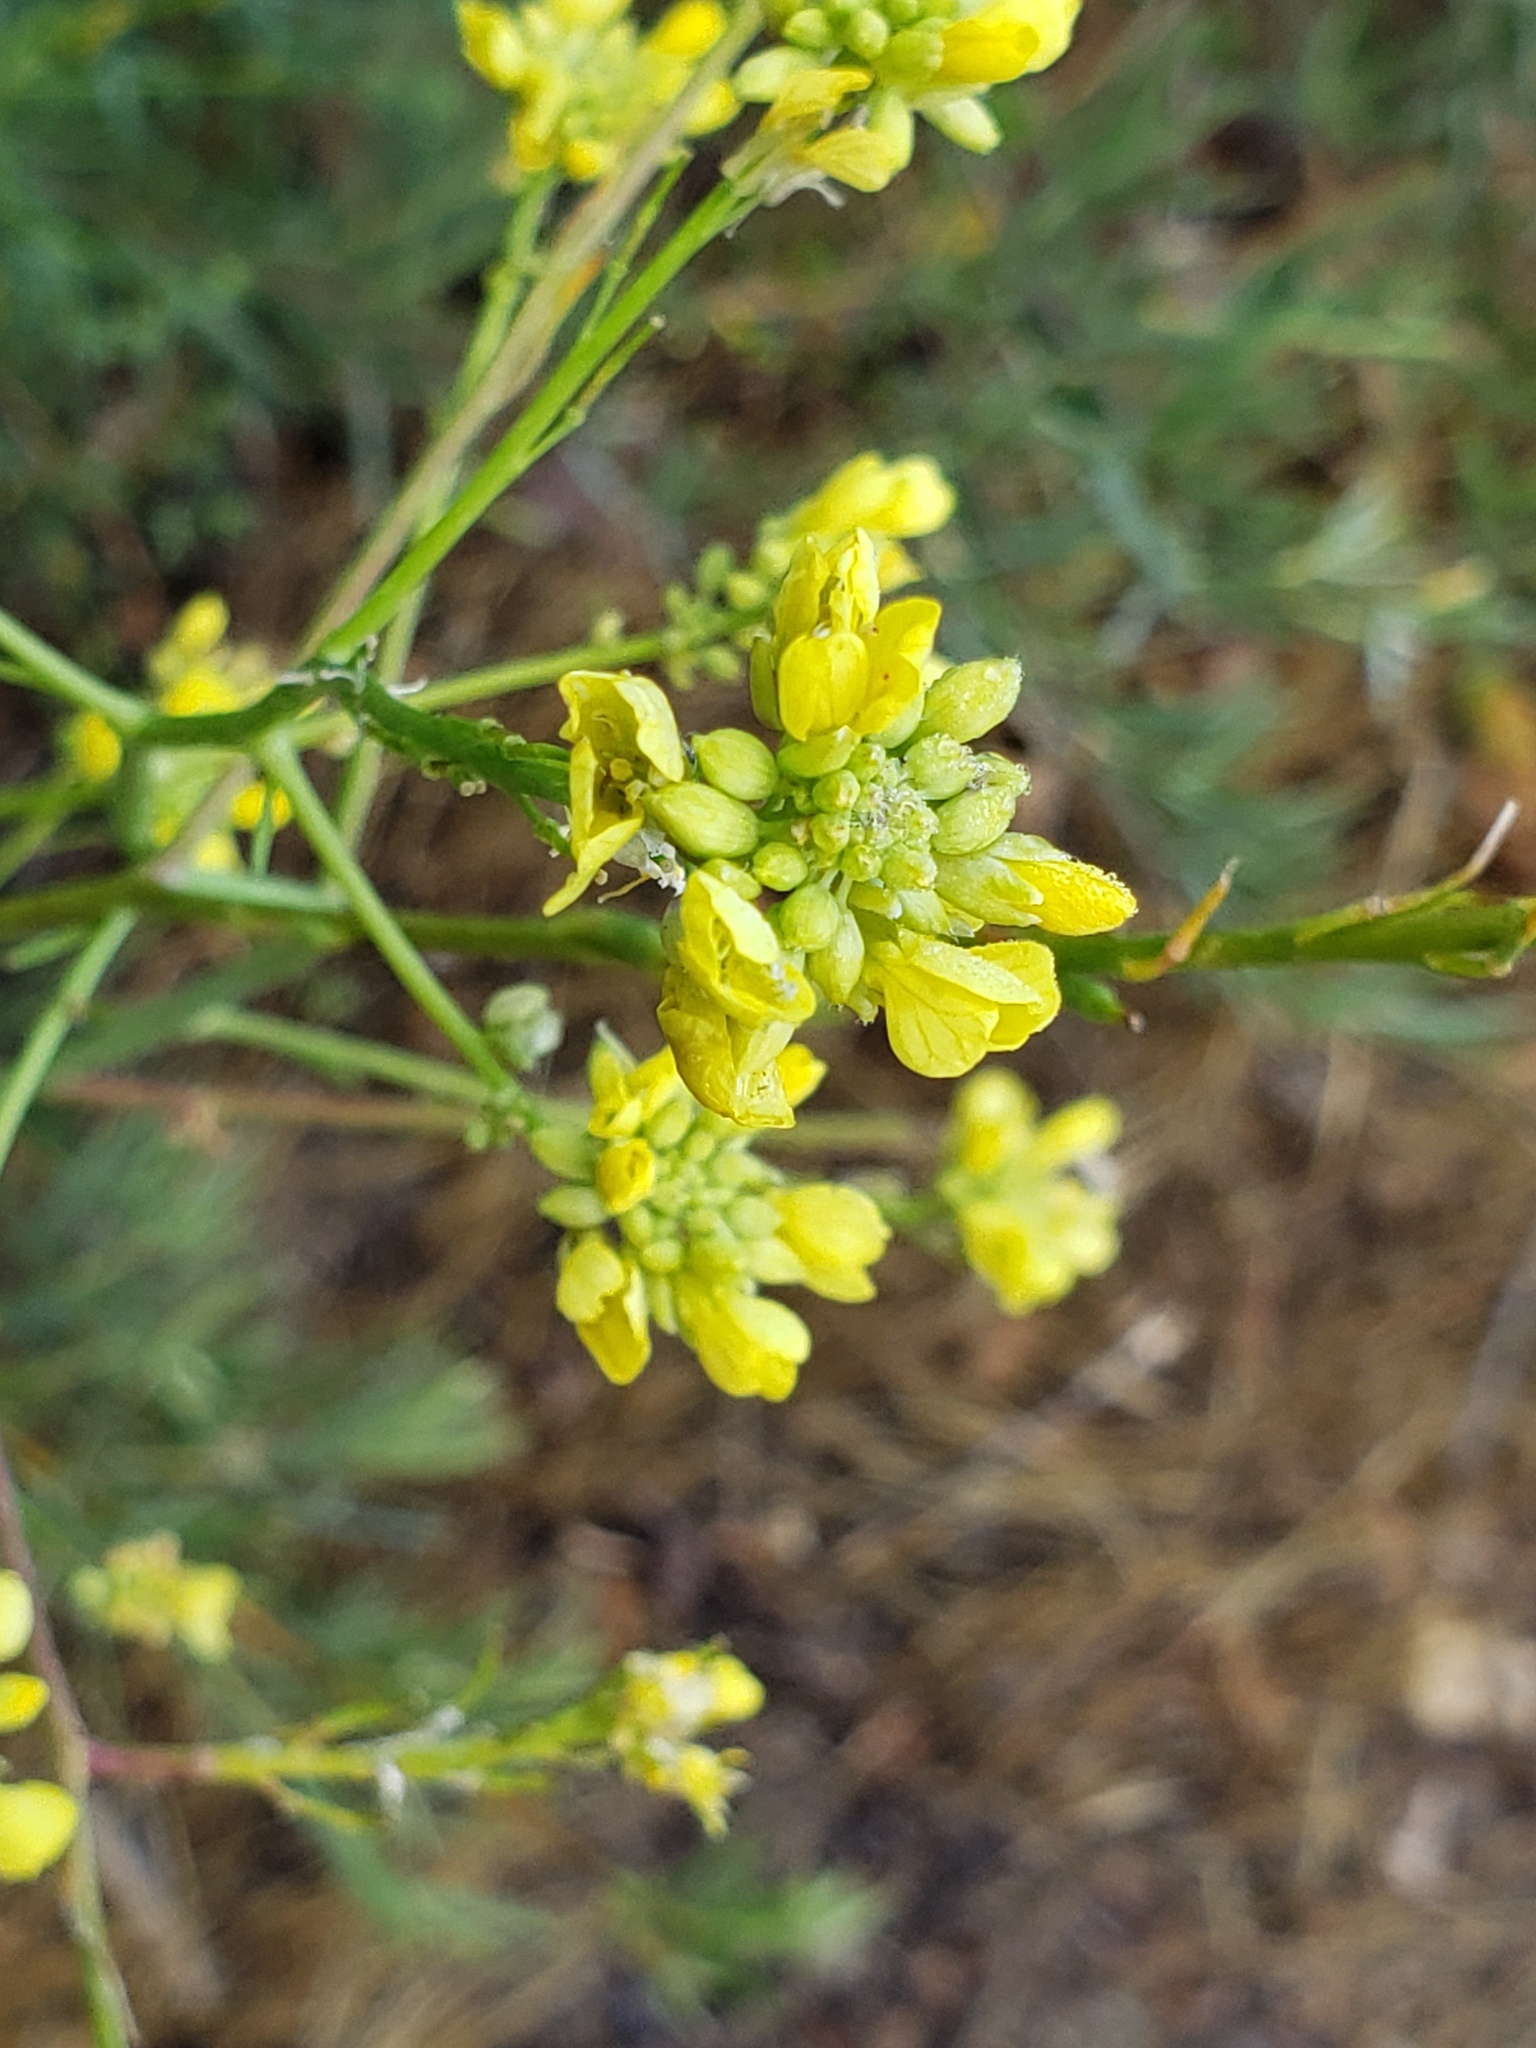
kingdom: Plantae
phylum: Tracheophyta
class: Magnoliopsida
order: Brassicales
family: Brassicaceae
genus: Hirschfeldia
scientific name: Hirschfeldia incana
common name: Hoary mustard
